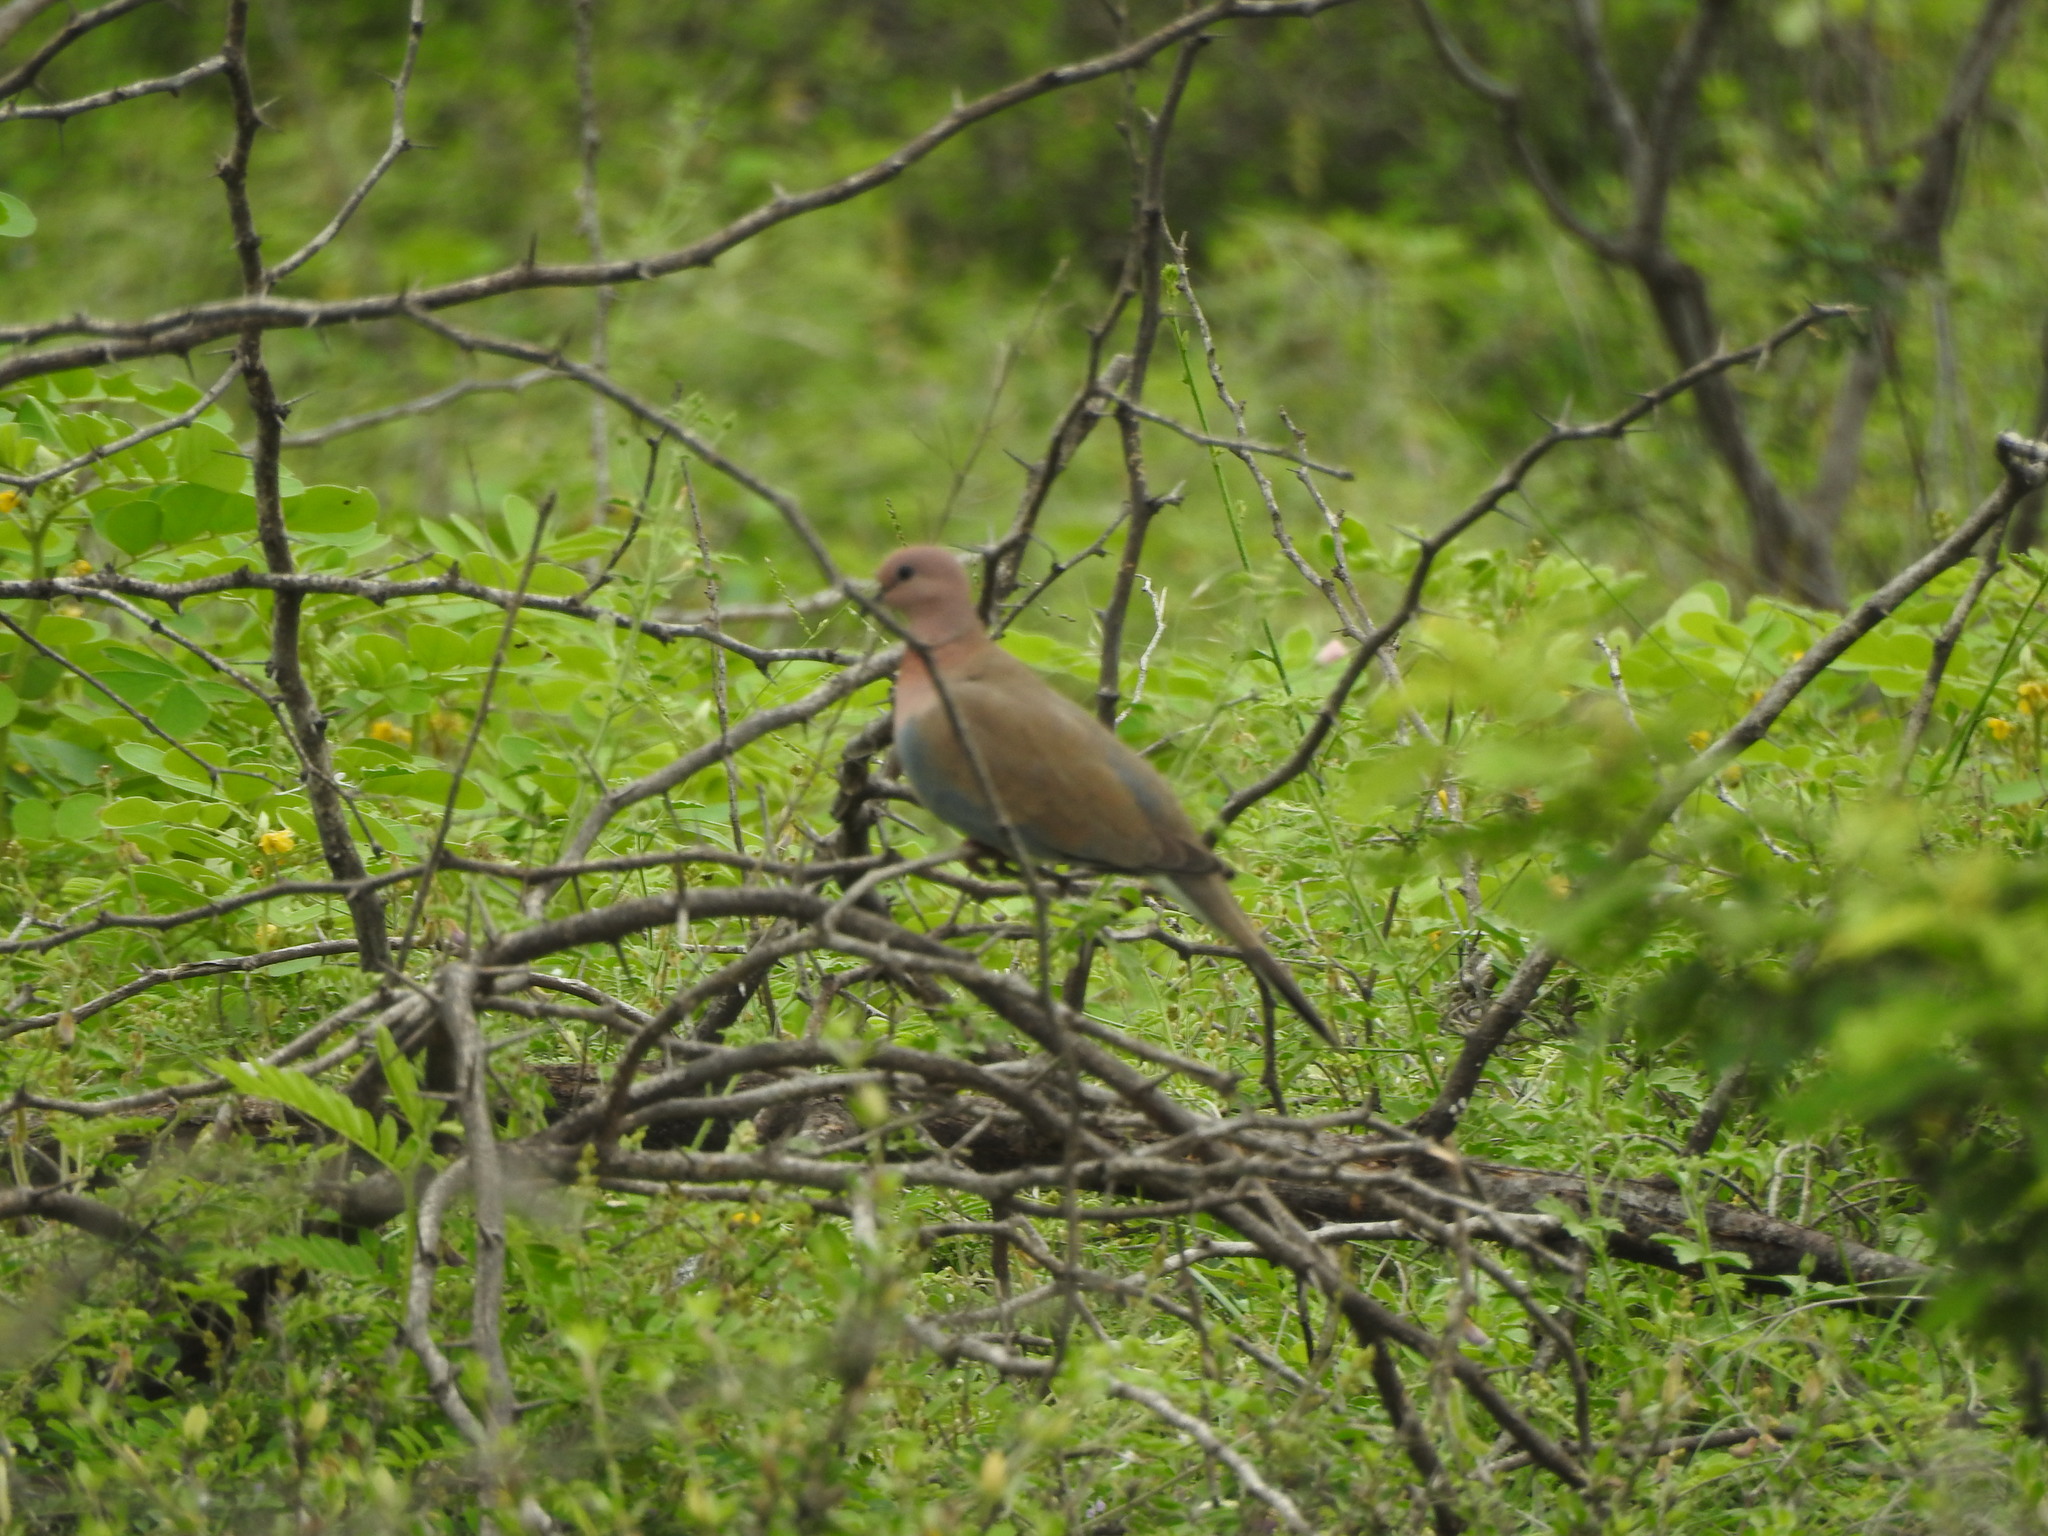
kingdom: Animalia
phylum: Chordata
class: Aves
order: Columbiformes
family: Columbidae
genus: Spilopelia
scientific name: Spilopelia senegalensis
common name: Laughing dove
